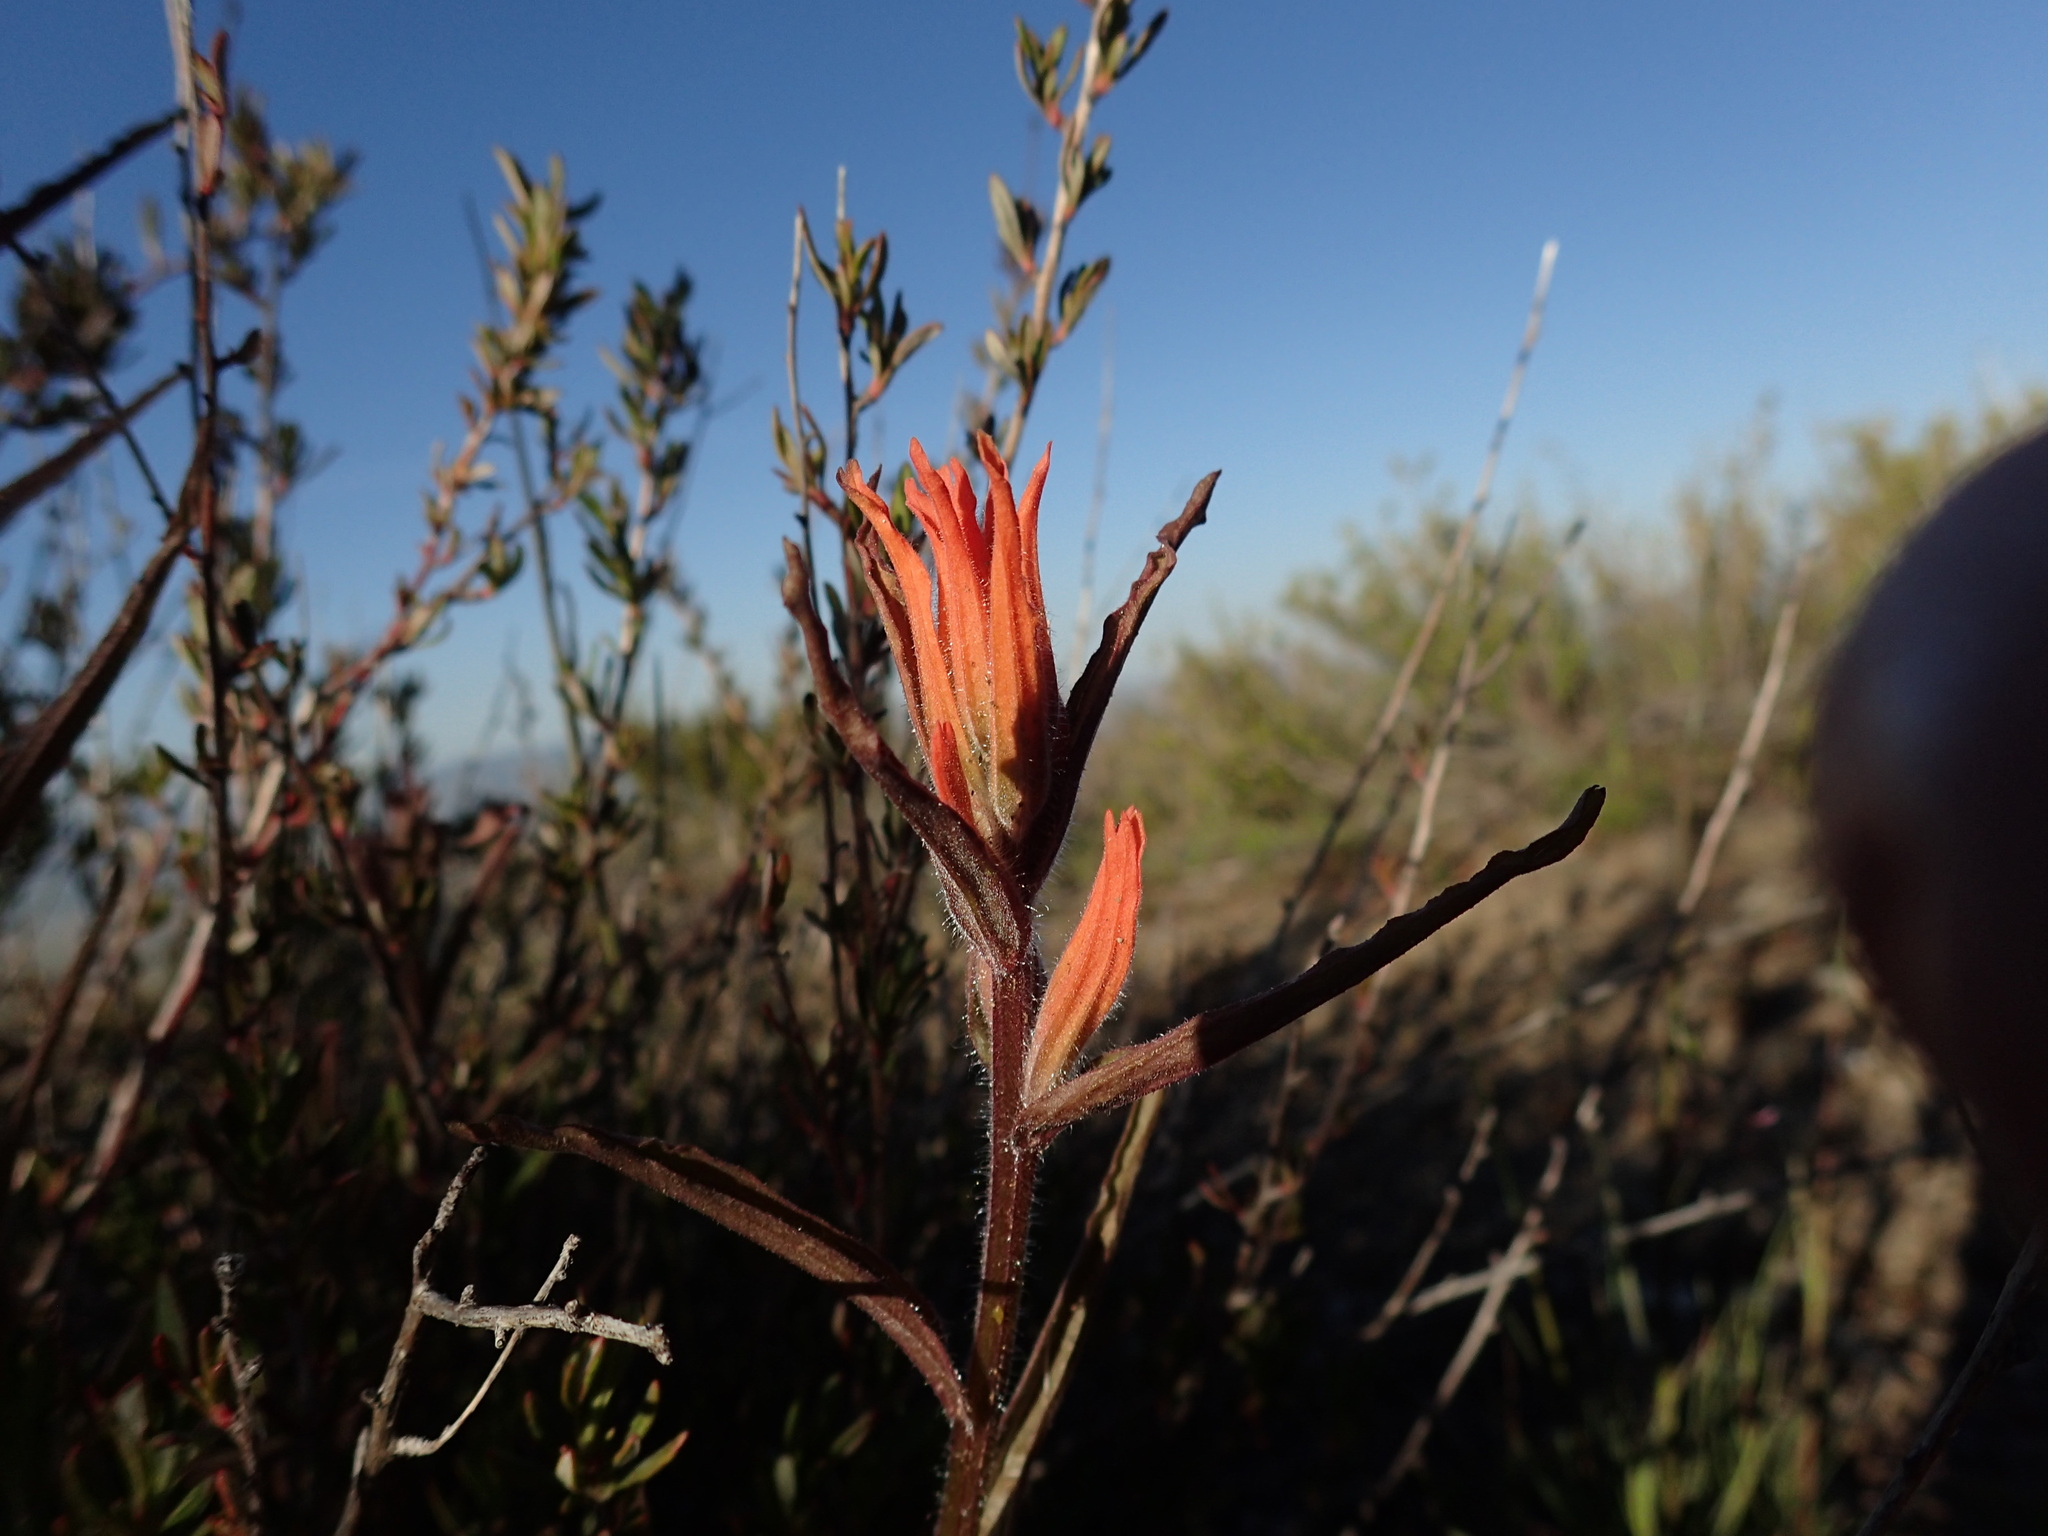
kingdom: Plantae
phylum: Tracheophyta
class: Magnoliopsida
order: Lamiales
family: Orobanchaceae
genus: Castilleja
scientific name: Castilleja subinclusa
